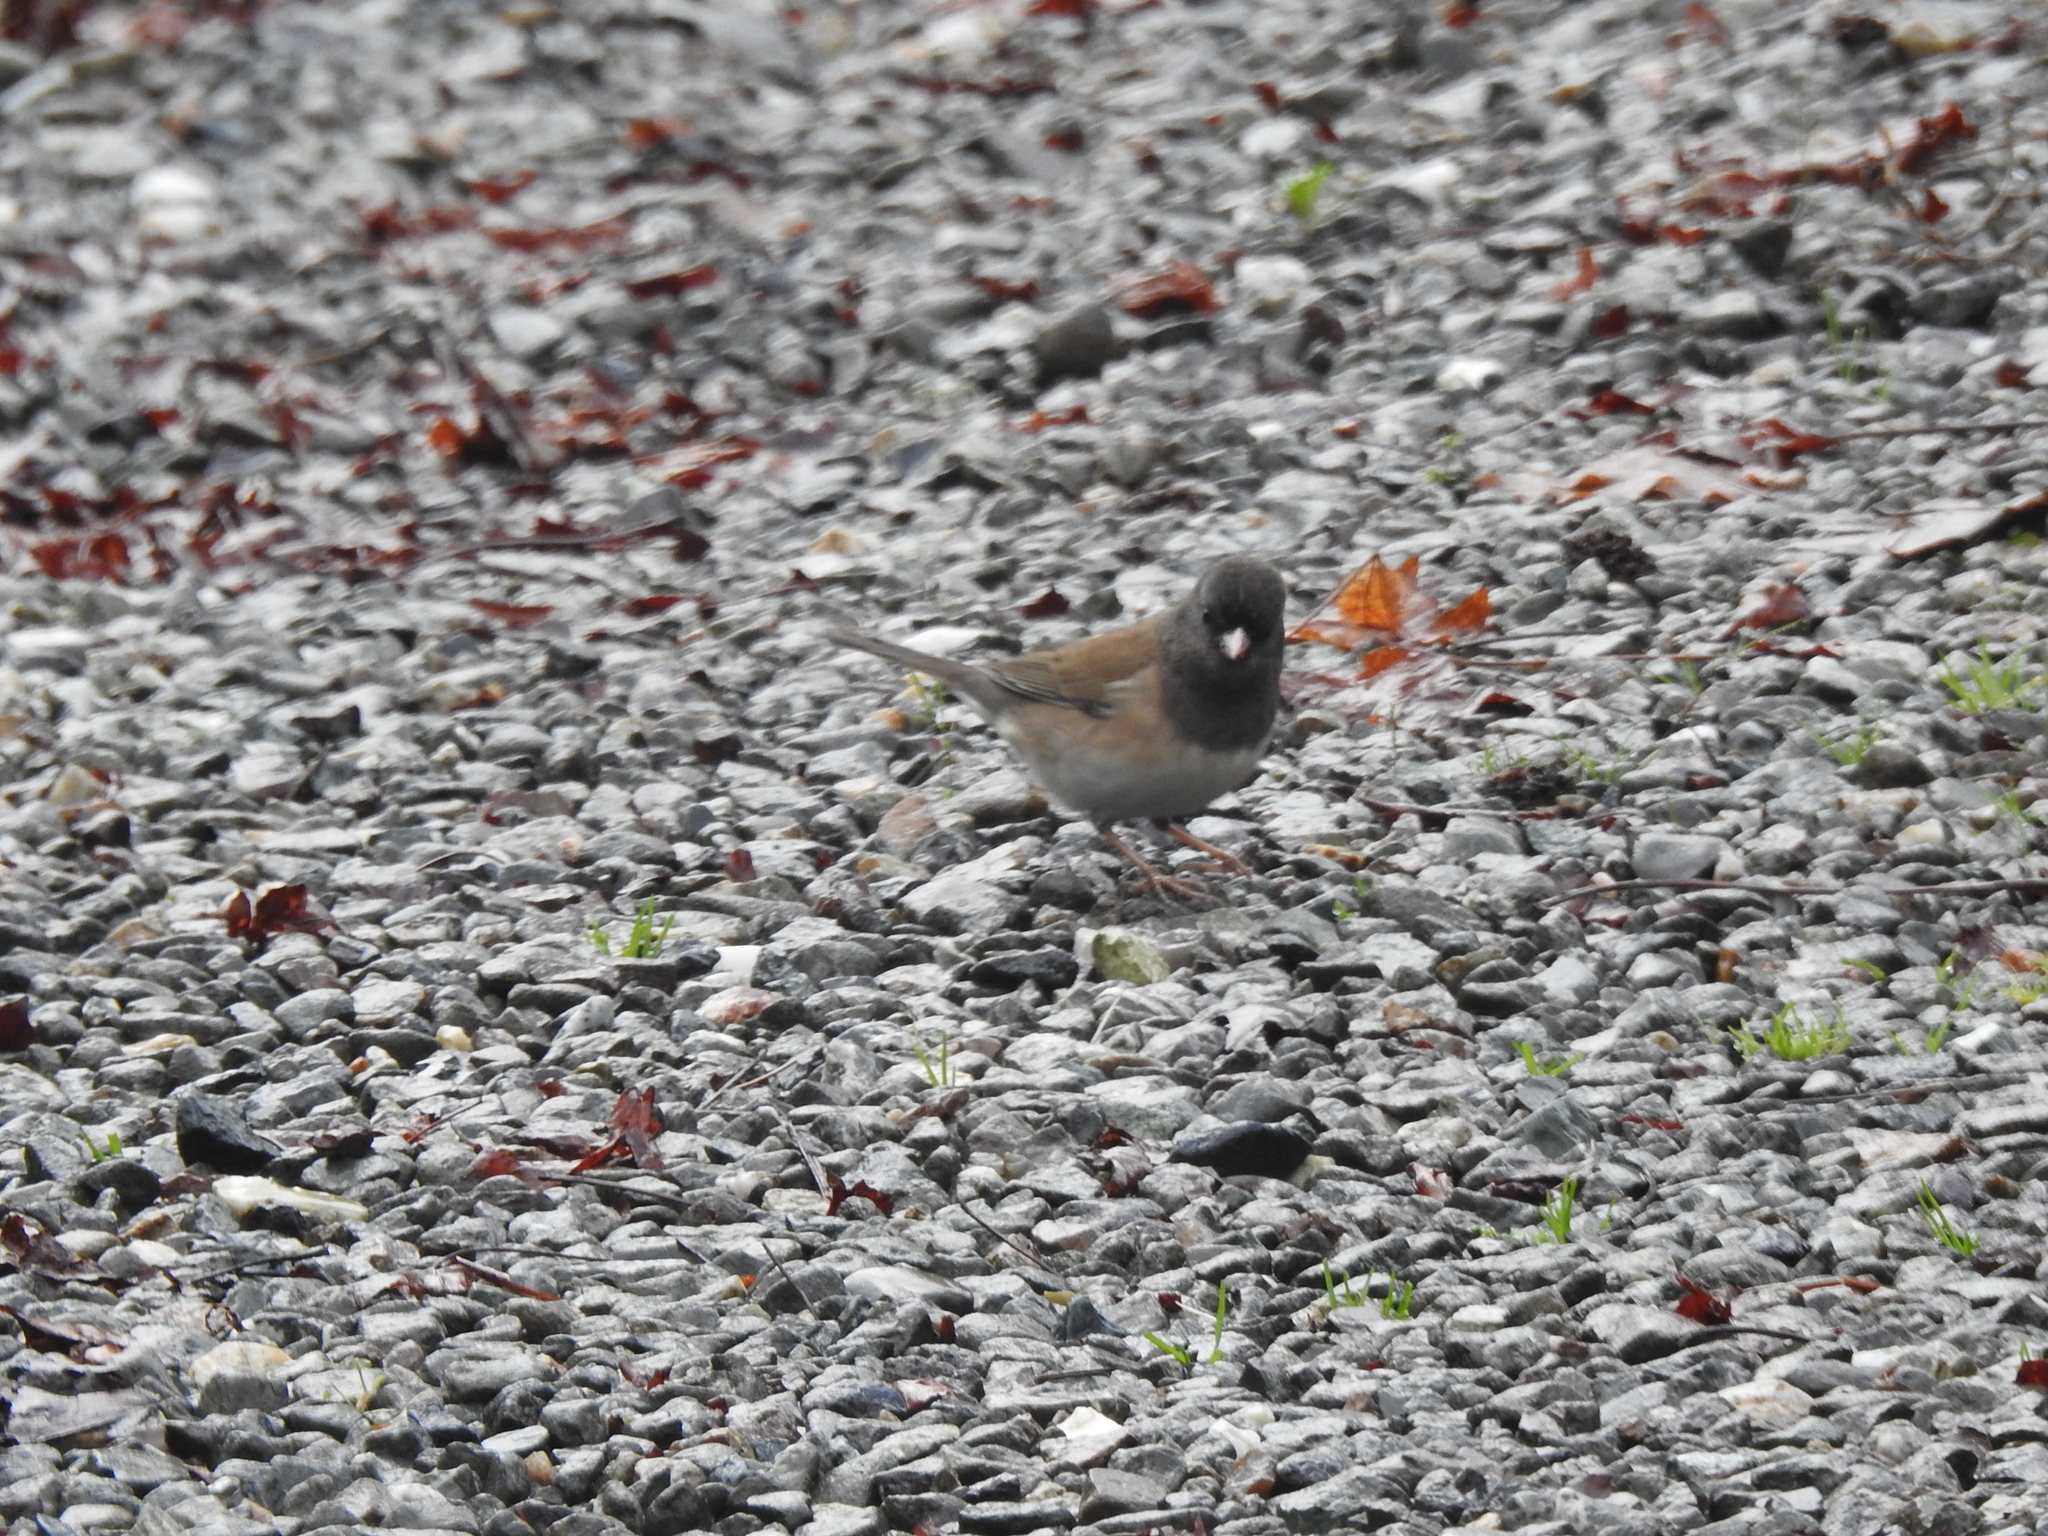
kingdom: Animalia
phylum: Chordata
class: Aves
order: Passeriformes
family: Passerellidae
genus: Junco
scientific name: Junco hyemalis
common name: Dark-eyed junco
